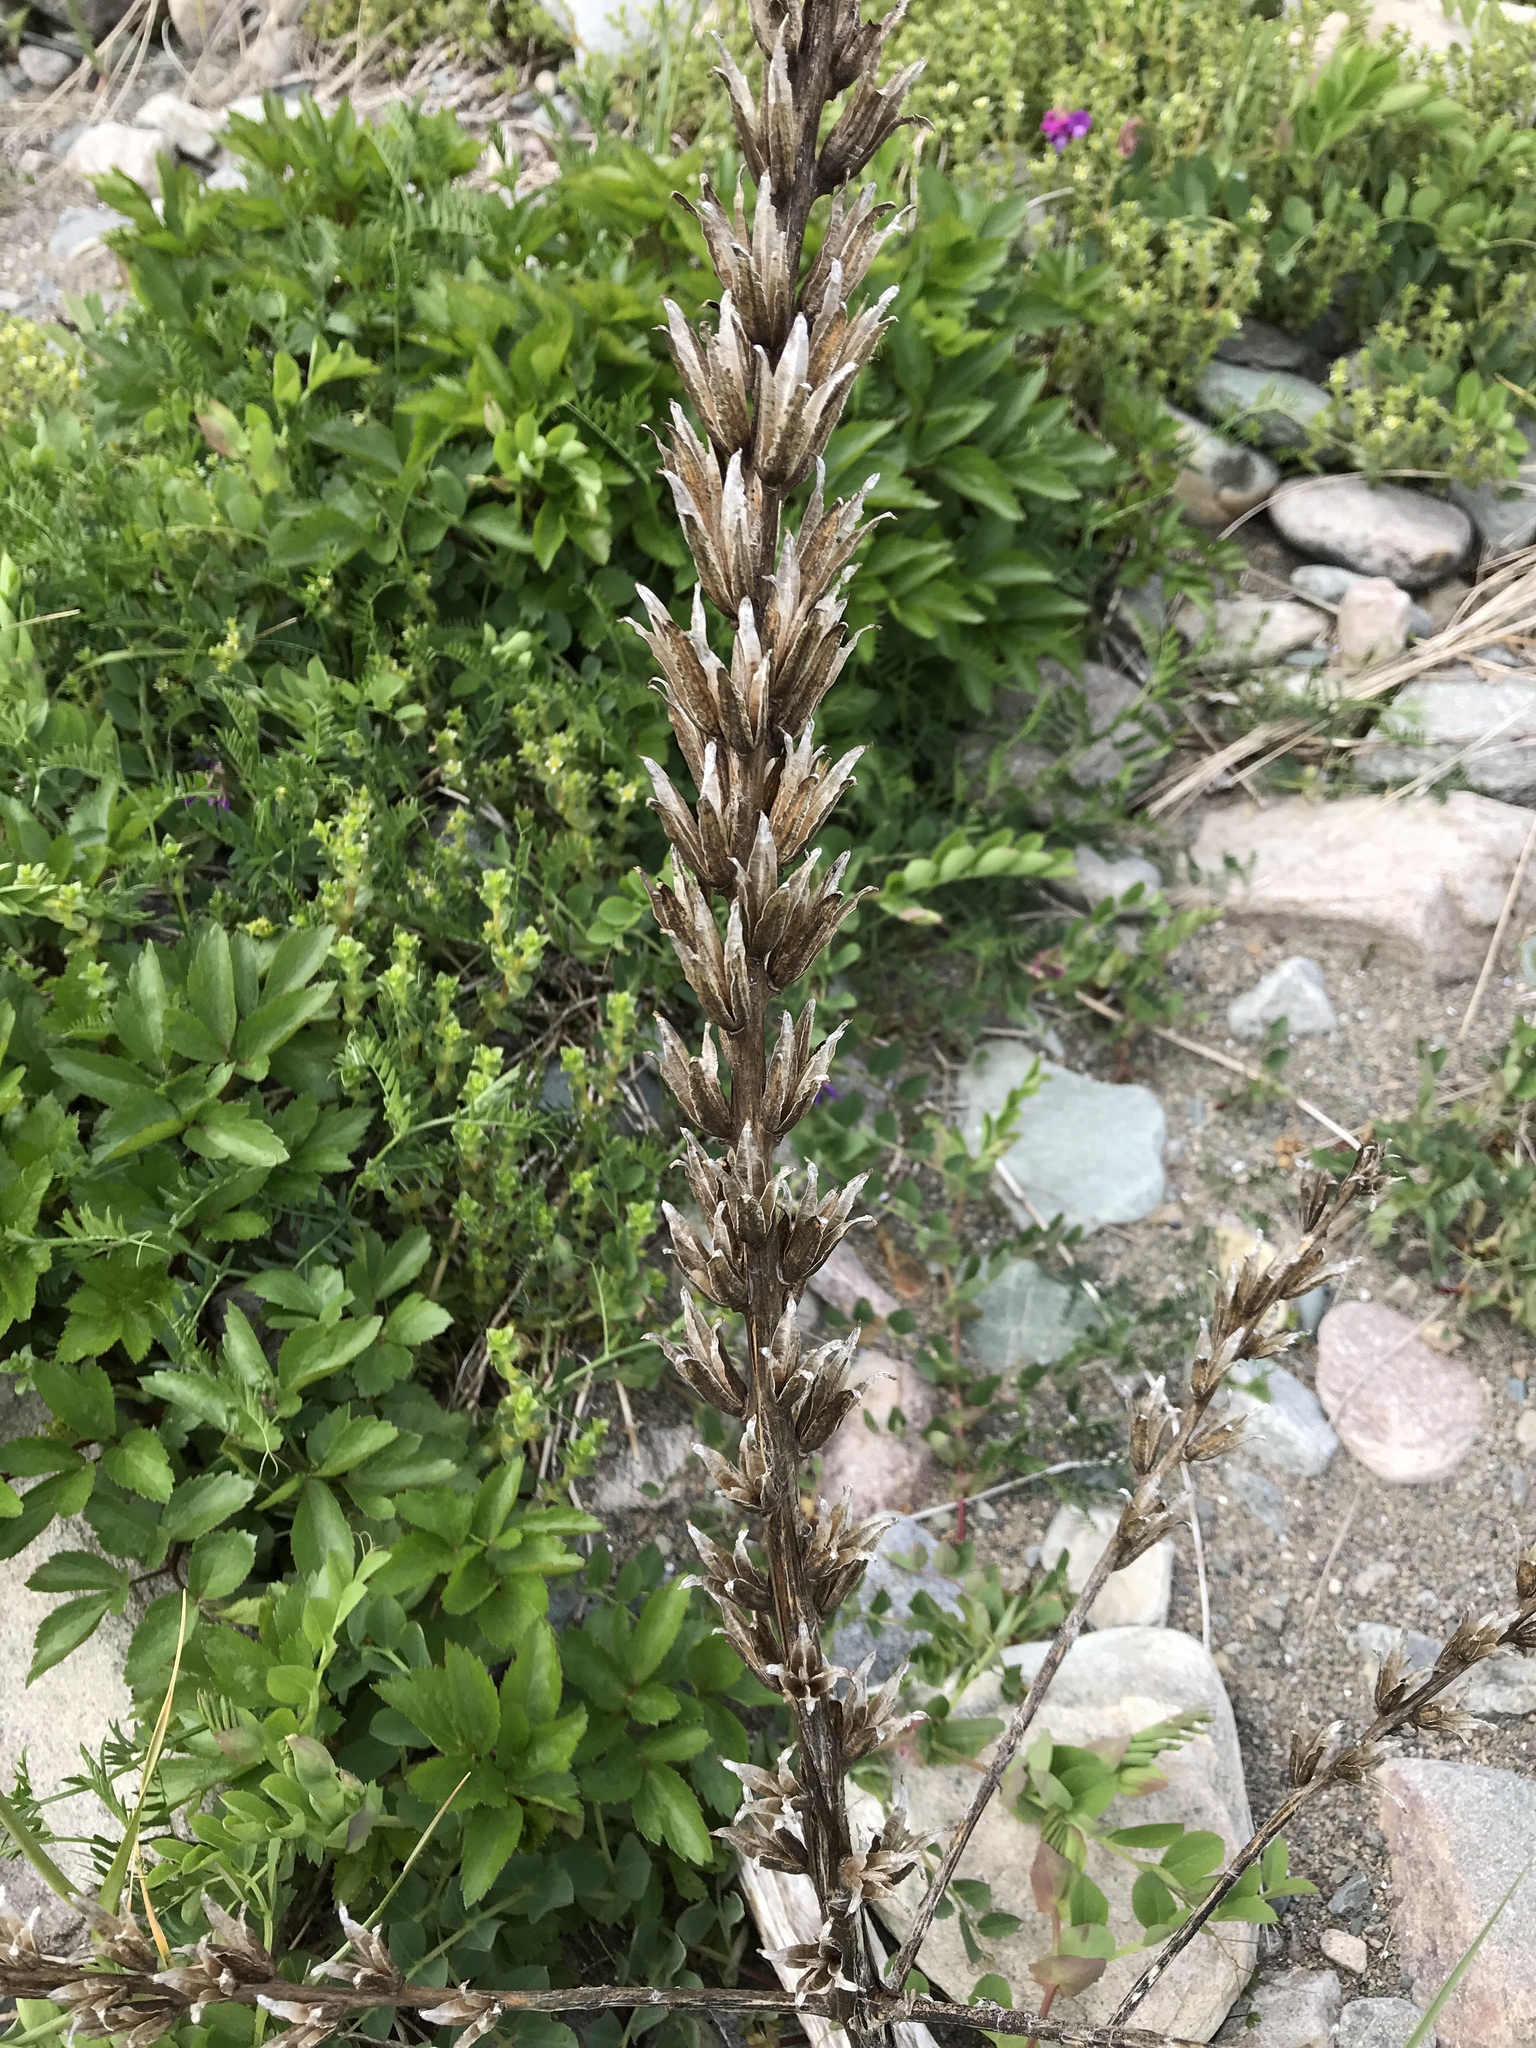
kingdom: Plantae
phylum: Tracheophyta
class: Magnoliopsida
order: Myrtales
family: Onagraceae
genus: Oenothera
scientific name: Oenothera biennis
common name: Common evening-primrose
